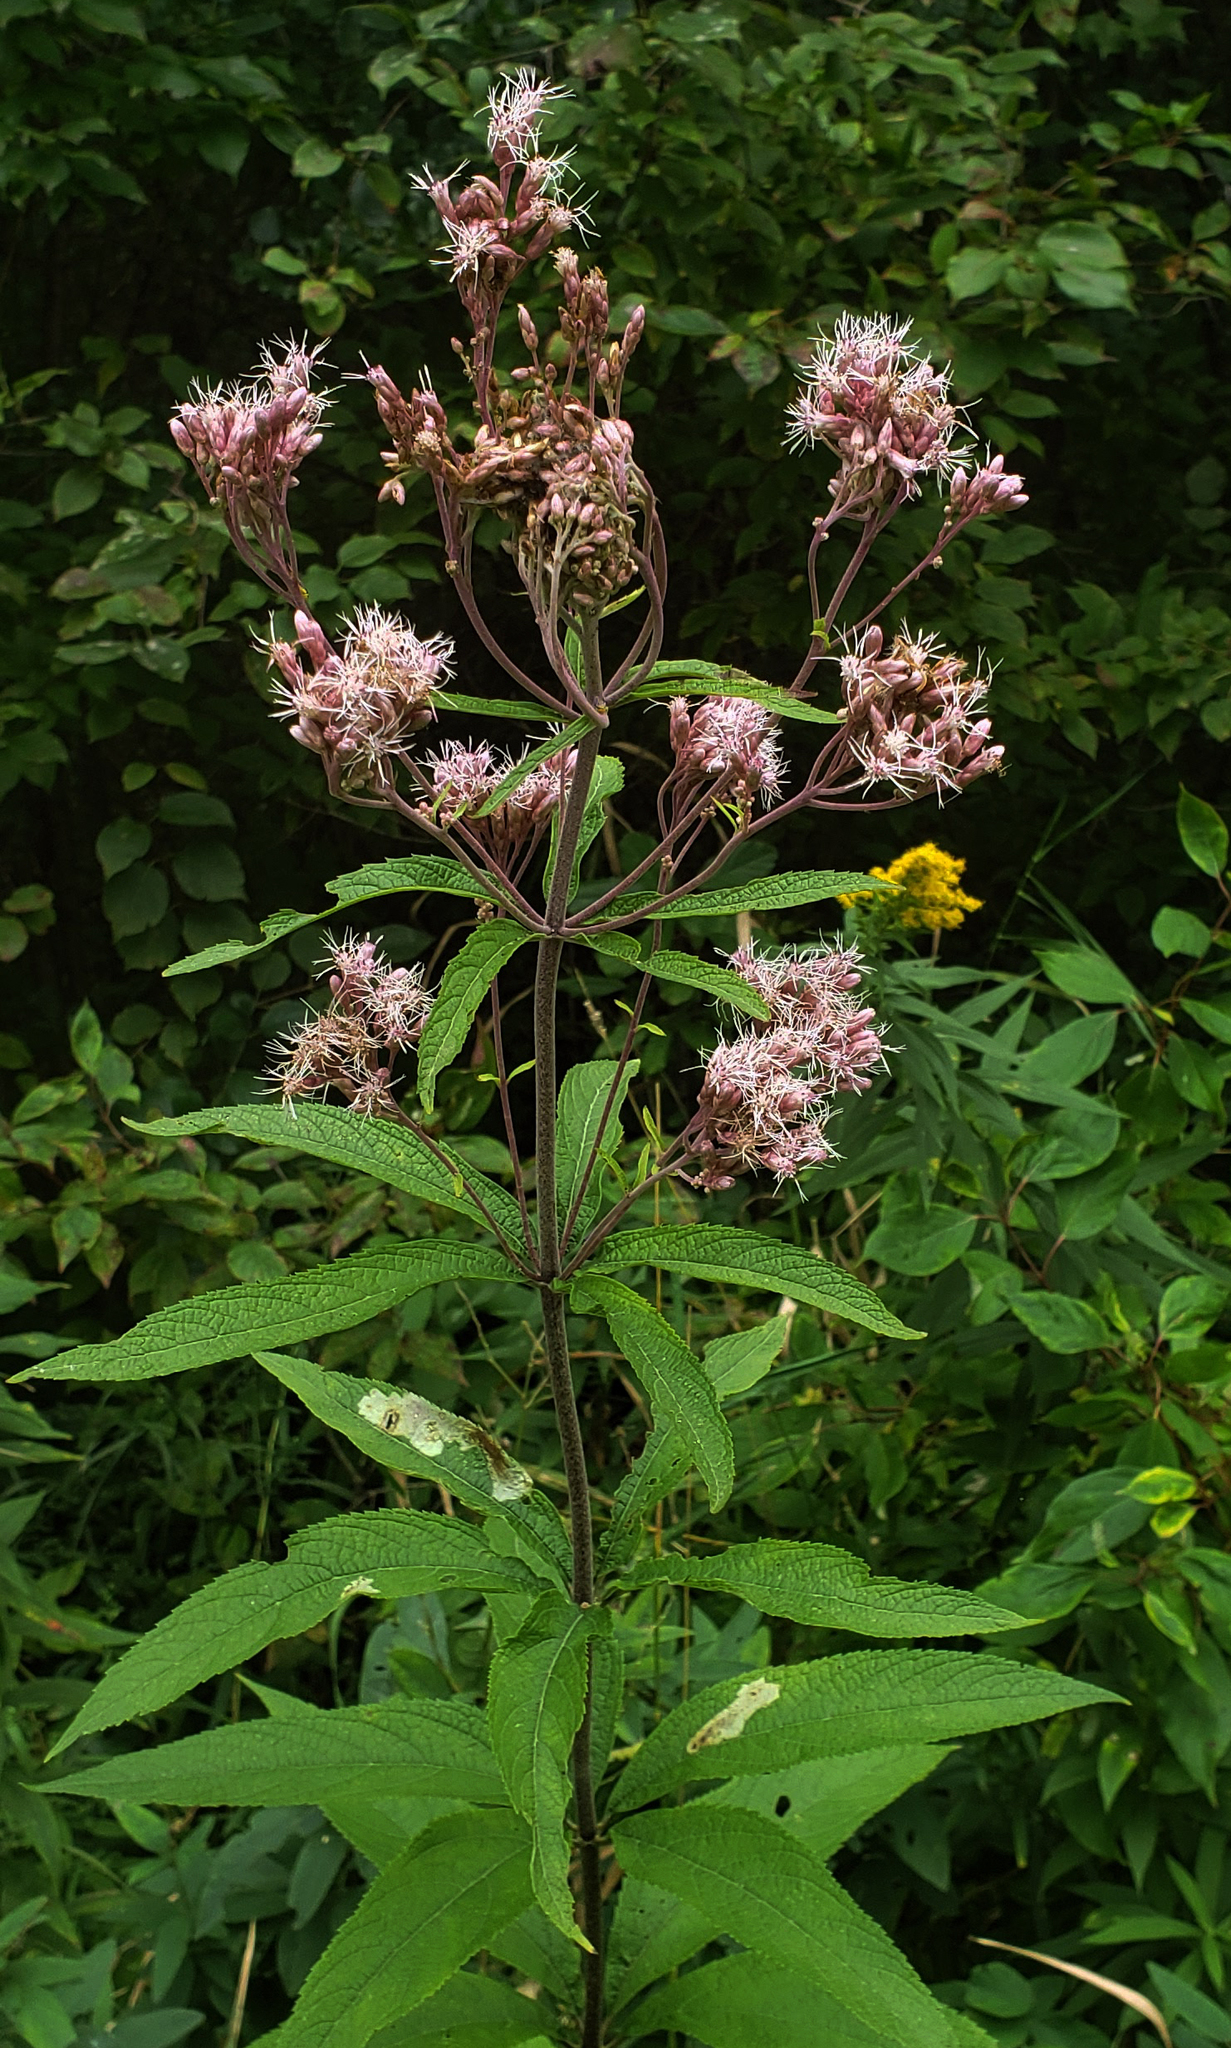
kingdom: Plantae
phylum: Tracheophyta
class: Magnoliopsida
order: Asterales
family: Asteraceae
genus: Eutrochium
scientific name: Eutrochium maculatum
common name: Spotted joe pye weed
